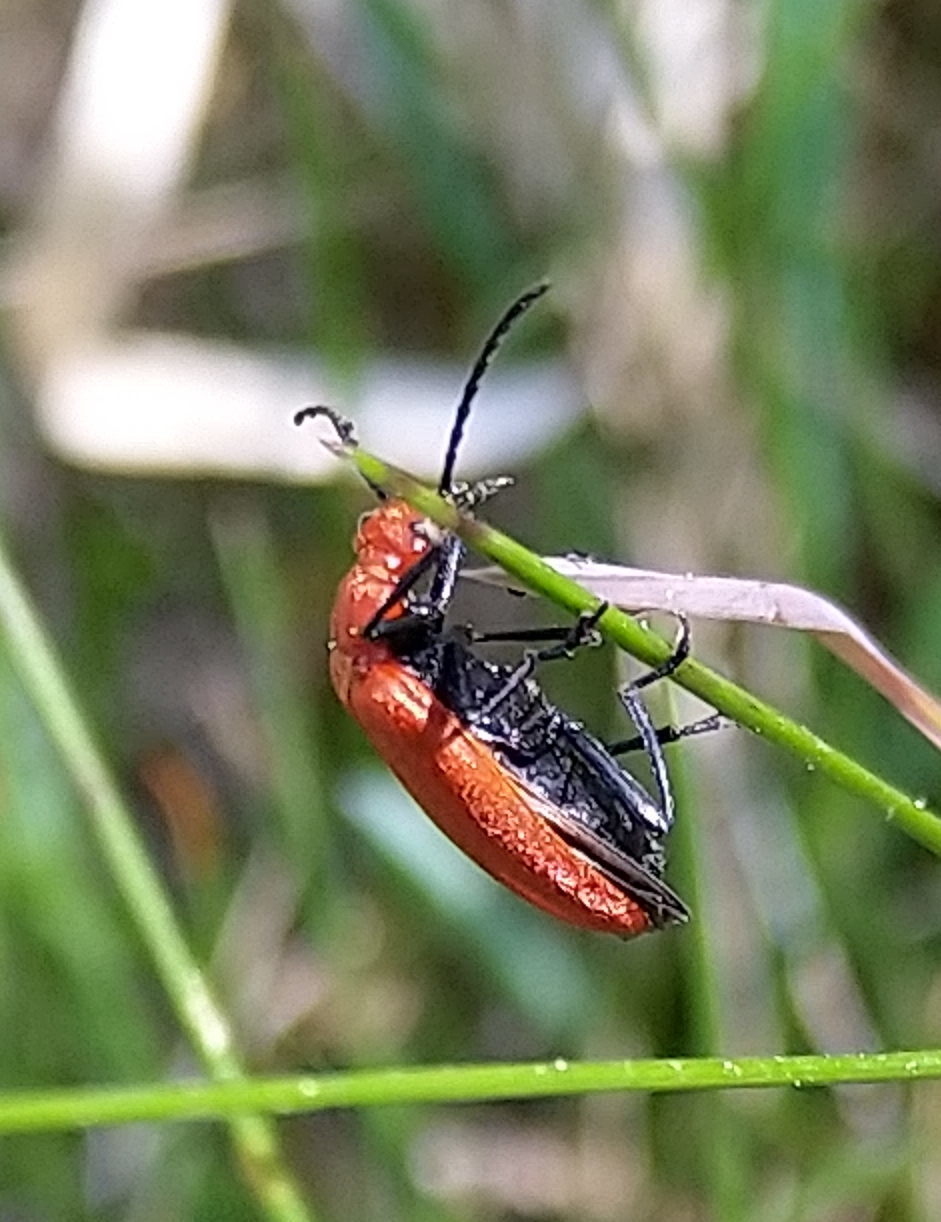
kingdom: Animalia
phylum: Arthropoda
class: Insecta
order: Coleoptera
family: Pyrochroidae
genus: Pyrochroa
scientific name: Pyrochroa serraticornis
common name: Red-headed cardinal beetle
